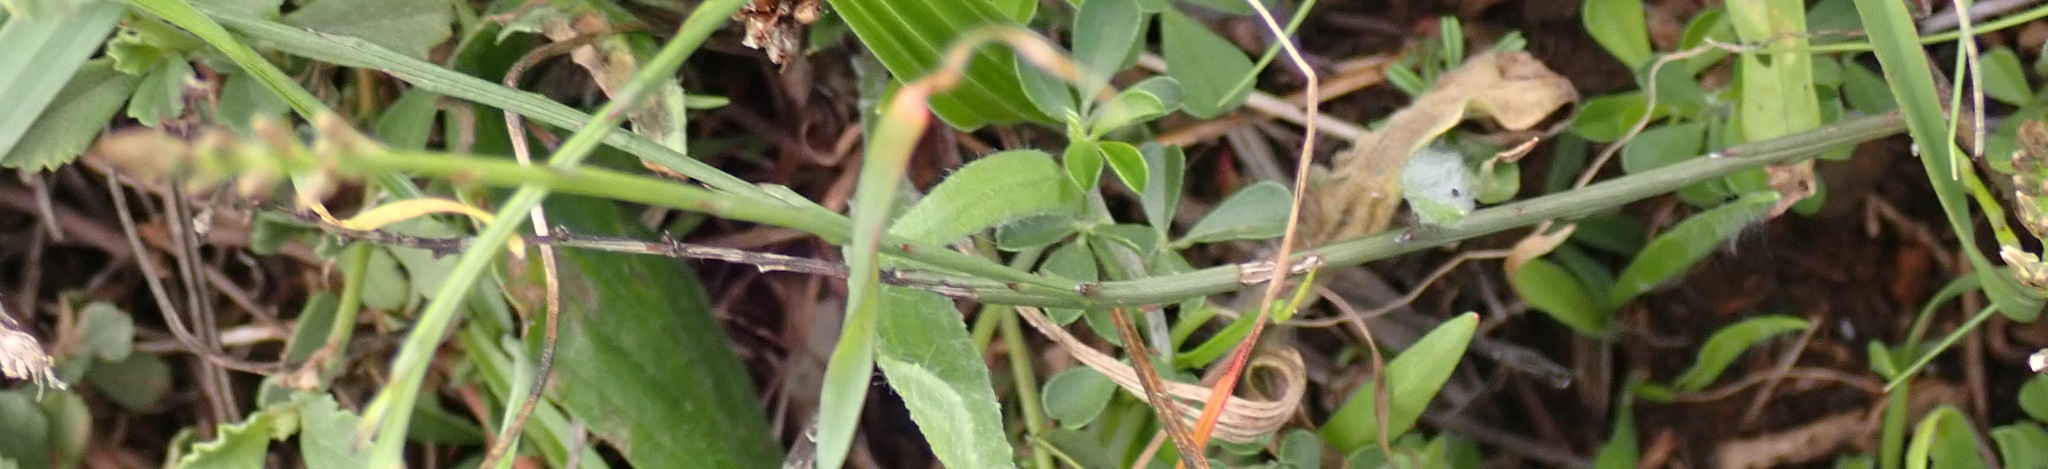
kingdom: Plantae
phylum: Tracheophyta
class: Magnoliopsida
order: Santalales
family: Thesiaceae
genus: Thesium
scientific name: Thesium funale
